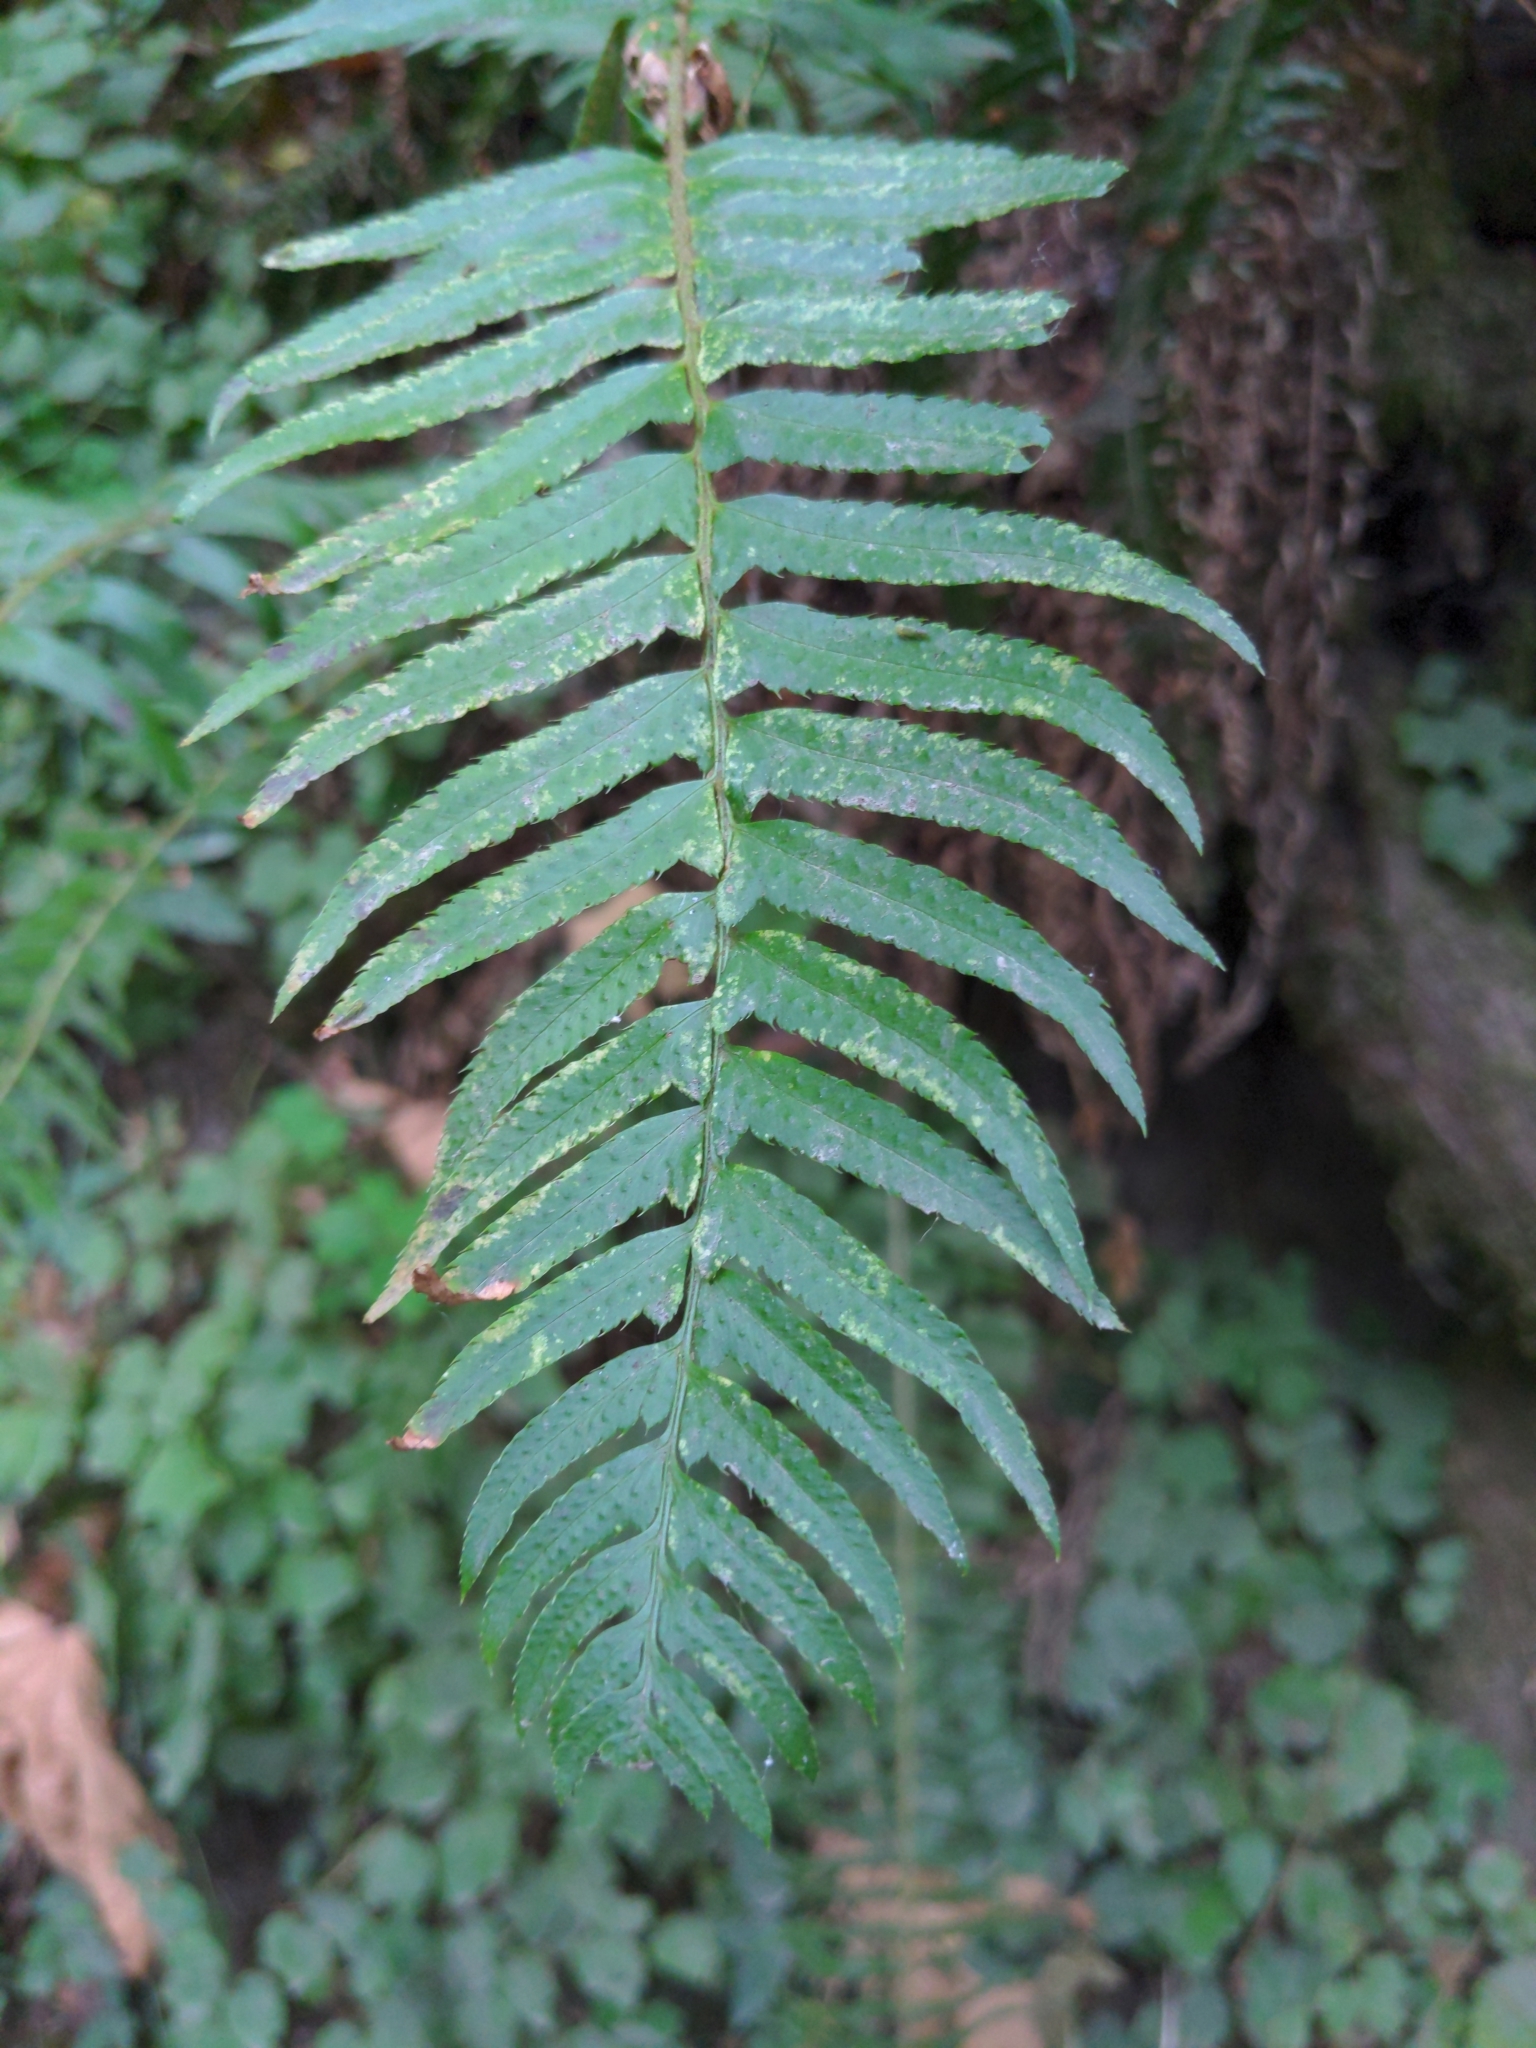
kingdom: Plantae
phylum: Tracheophyta
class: Polypodiopsida
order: Polypodiales
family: Dryopteridaceae
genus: Polystichum
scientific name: Polystichum munitum
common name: Western sword-fern
